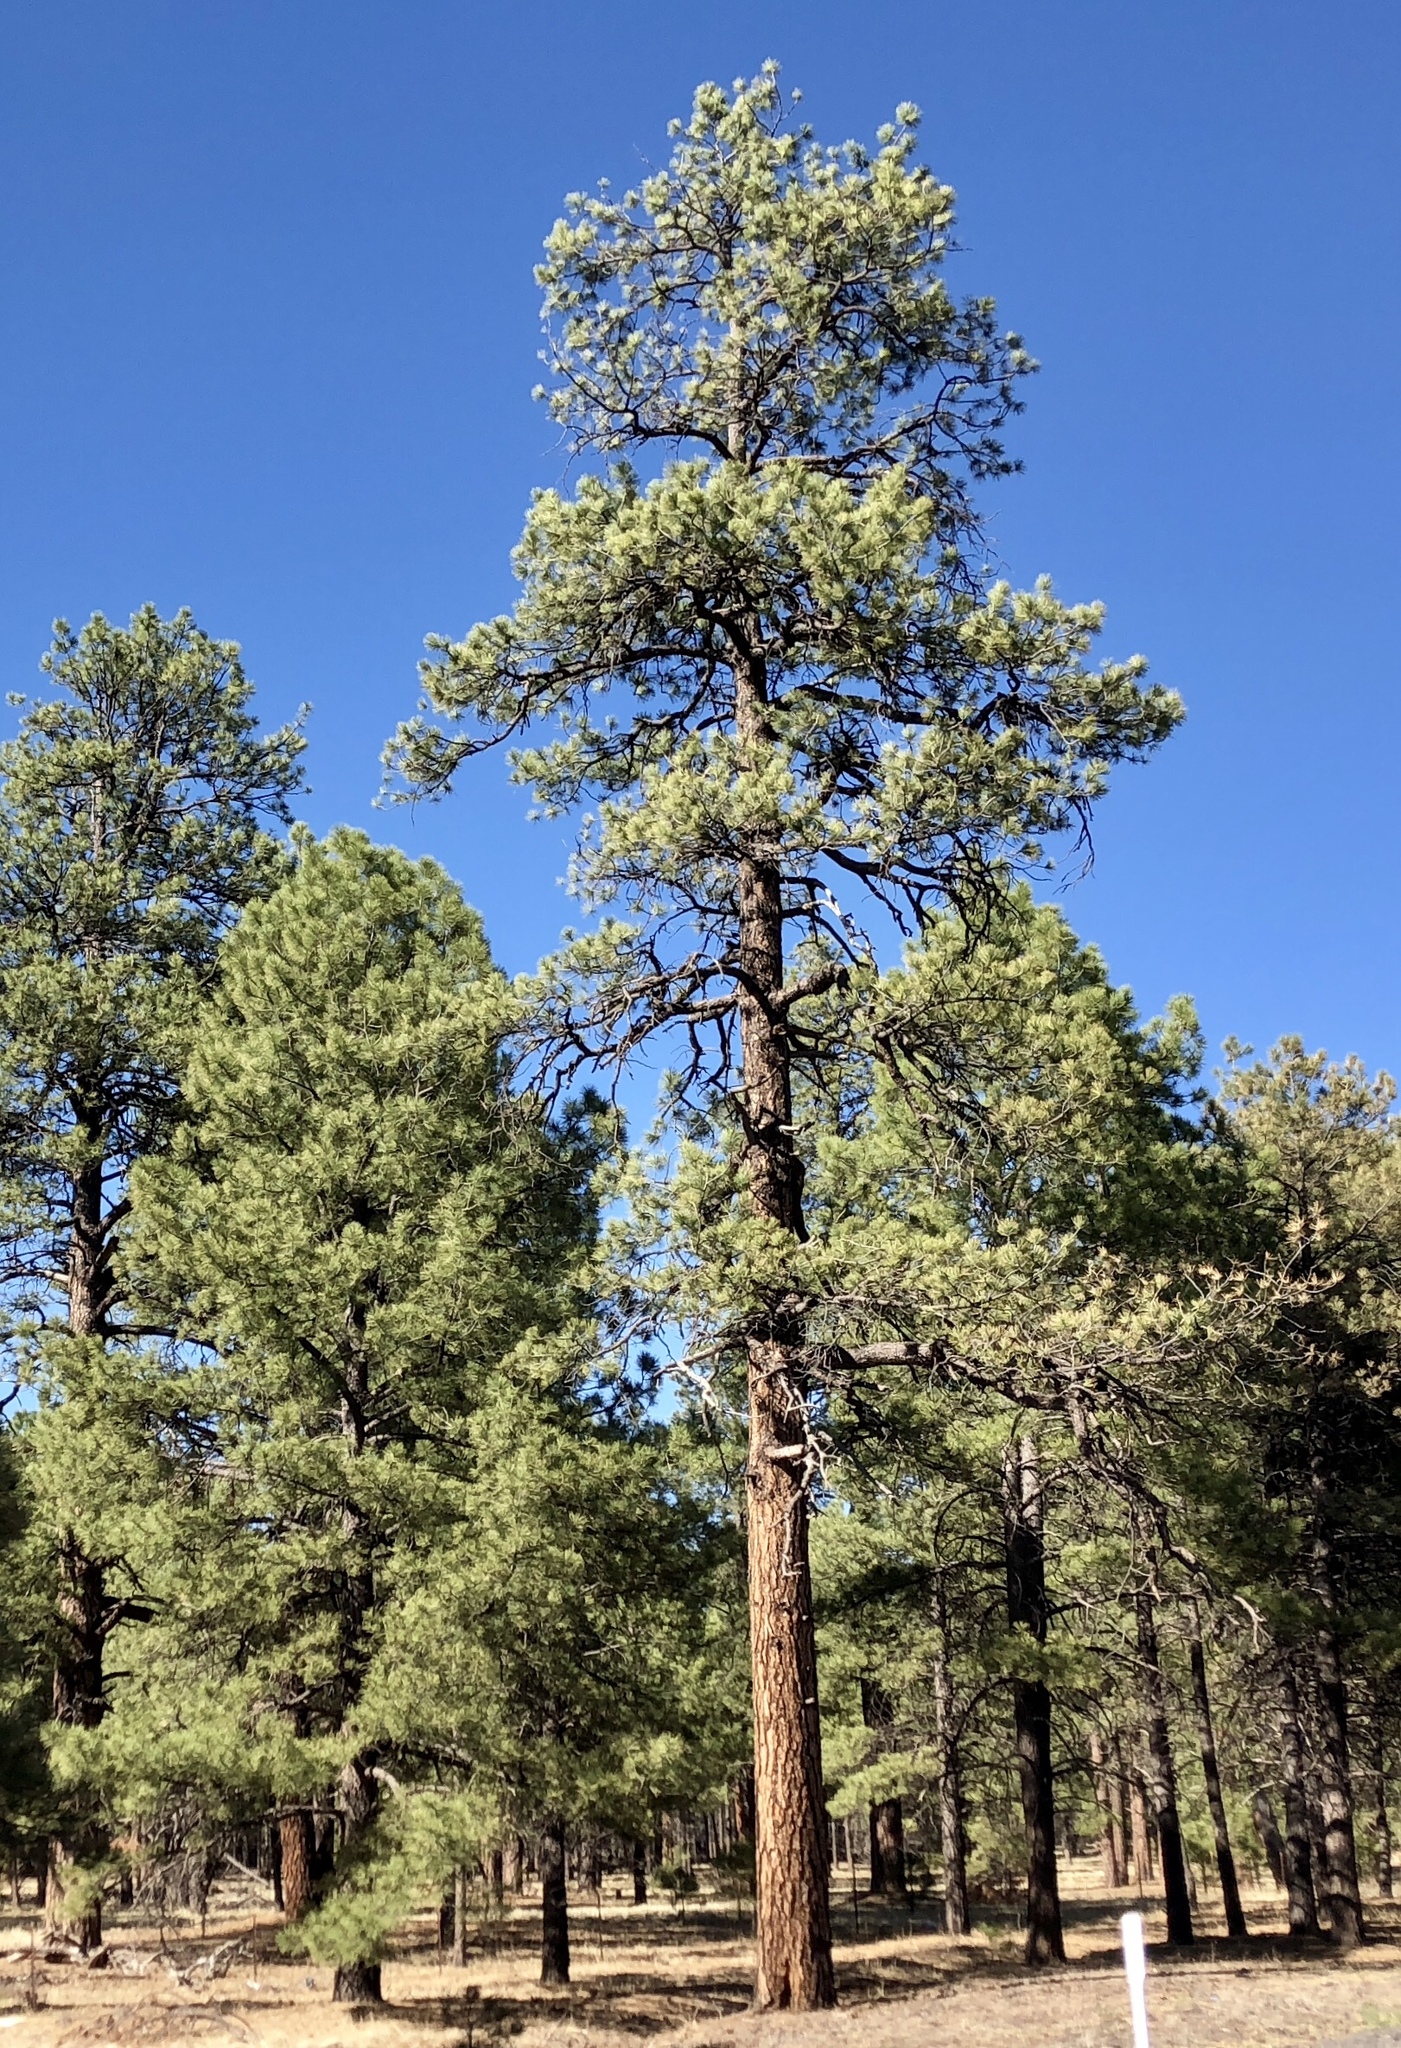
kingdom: Plantae
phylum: Tracheophyta
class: Pinopsida
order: Pinales
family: Pinaceae
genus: Pinus
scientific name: Pinus ponderosa
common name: Western yellow-pine
